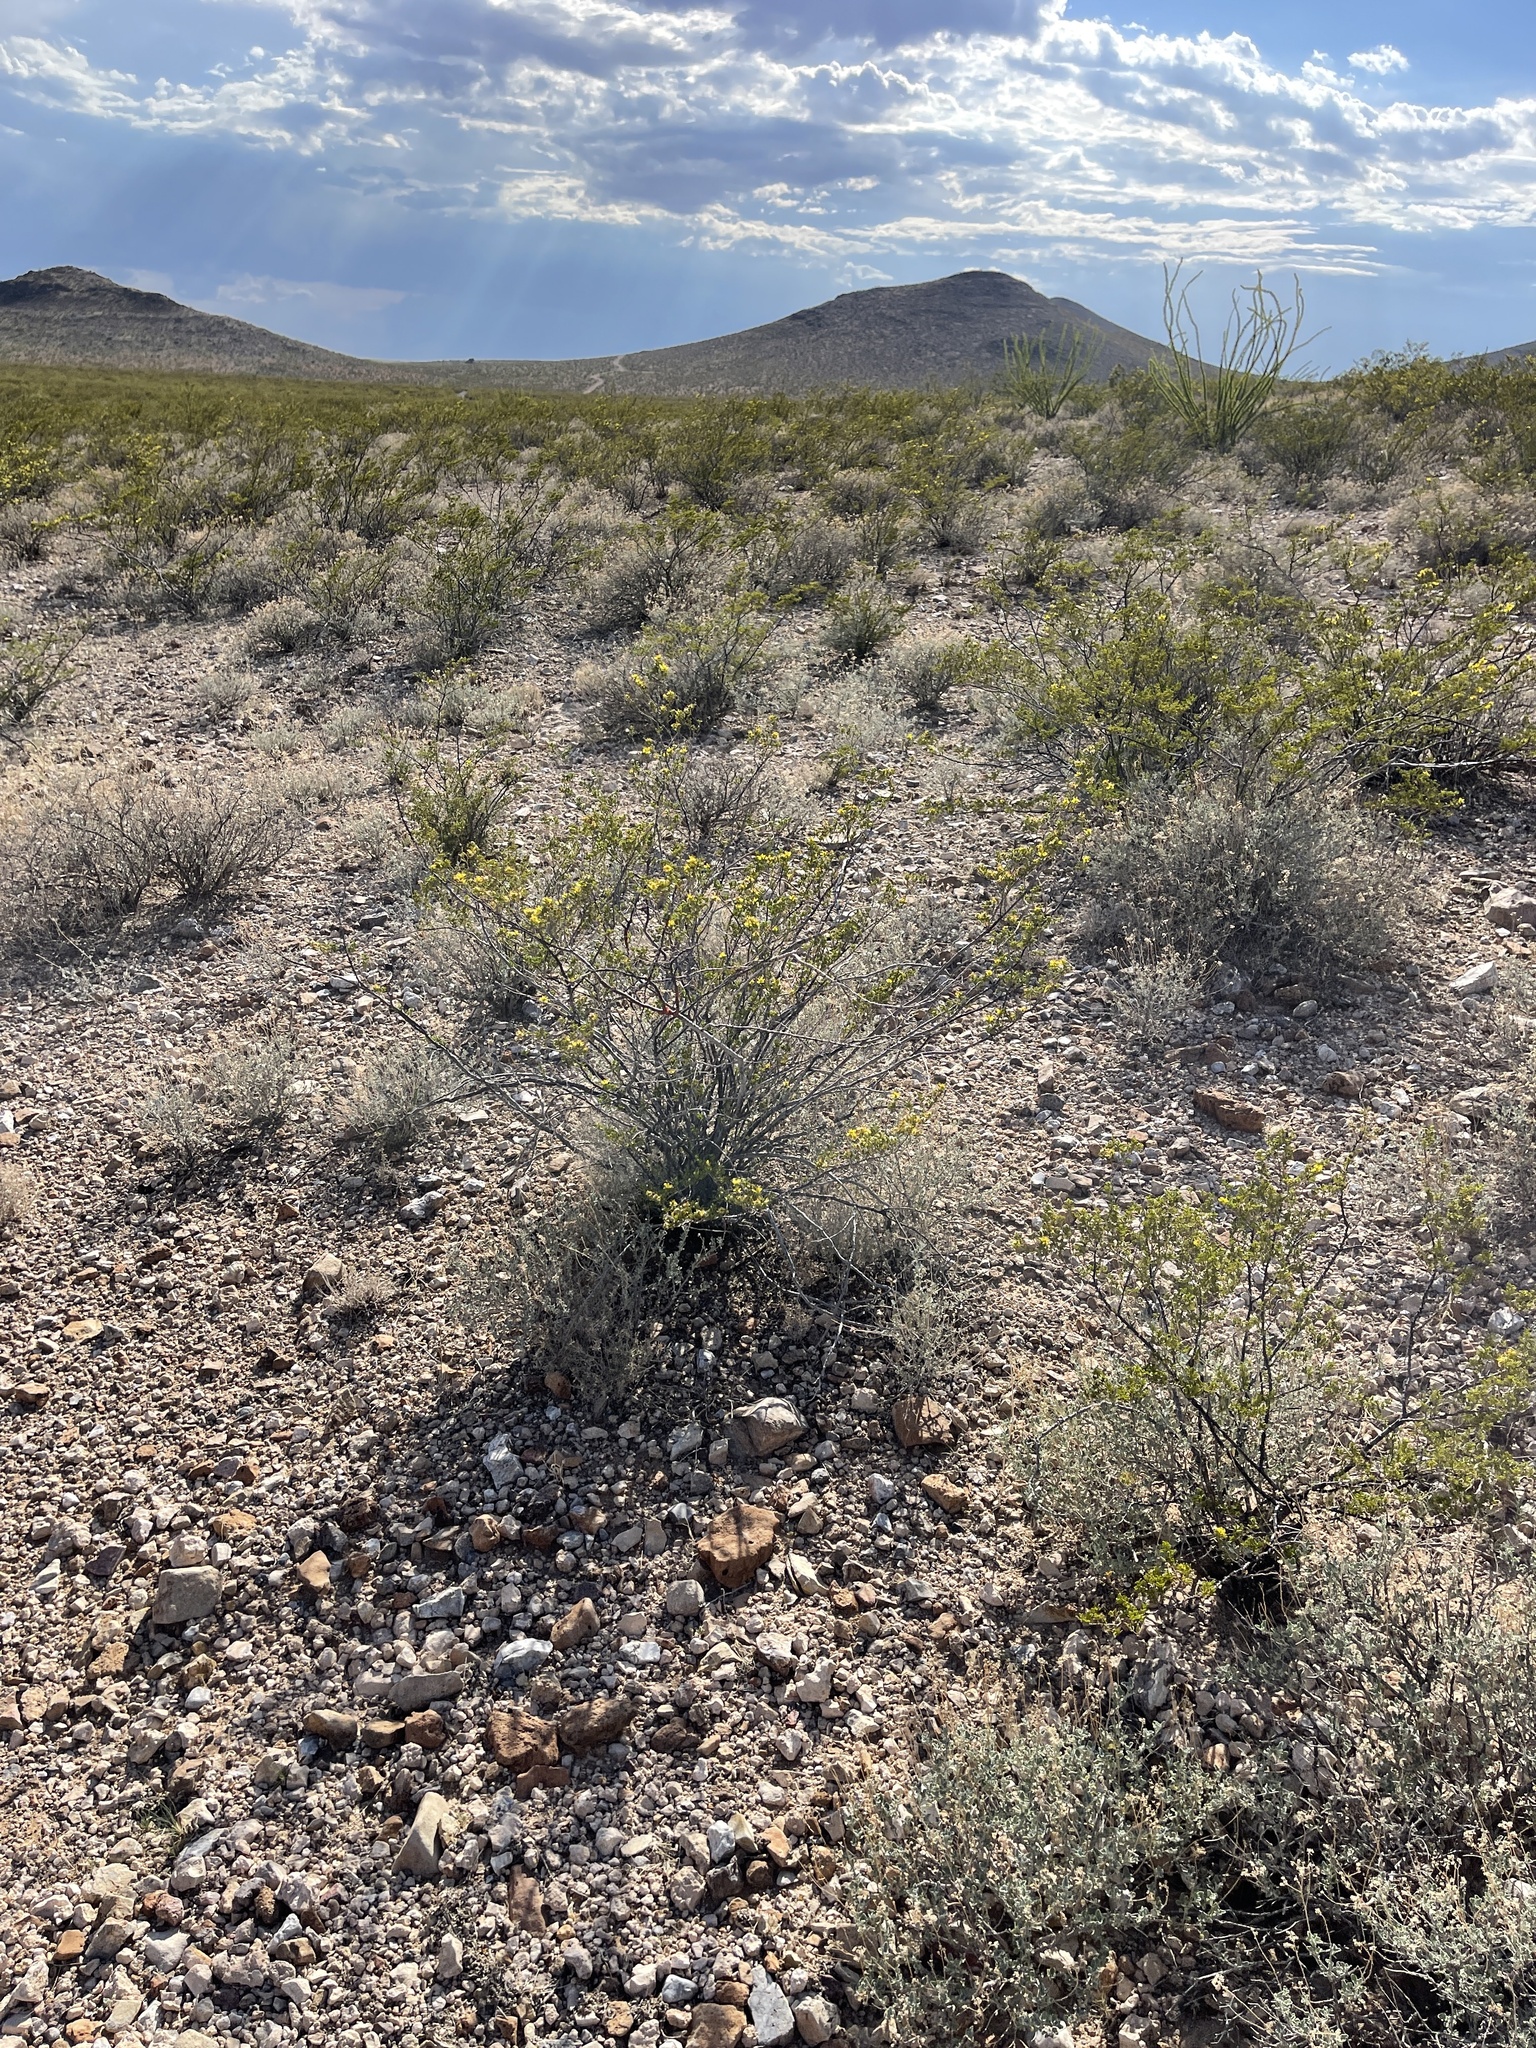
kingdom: Plantae
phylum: Tracheophyta
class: Magnoliopsida
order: Zygophyllales
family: Zygophyllaceae
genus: Larrea
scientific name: Larrea tridentata
